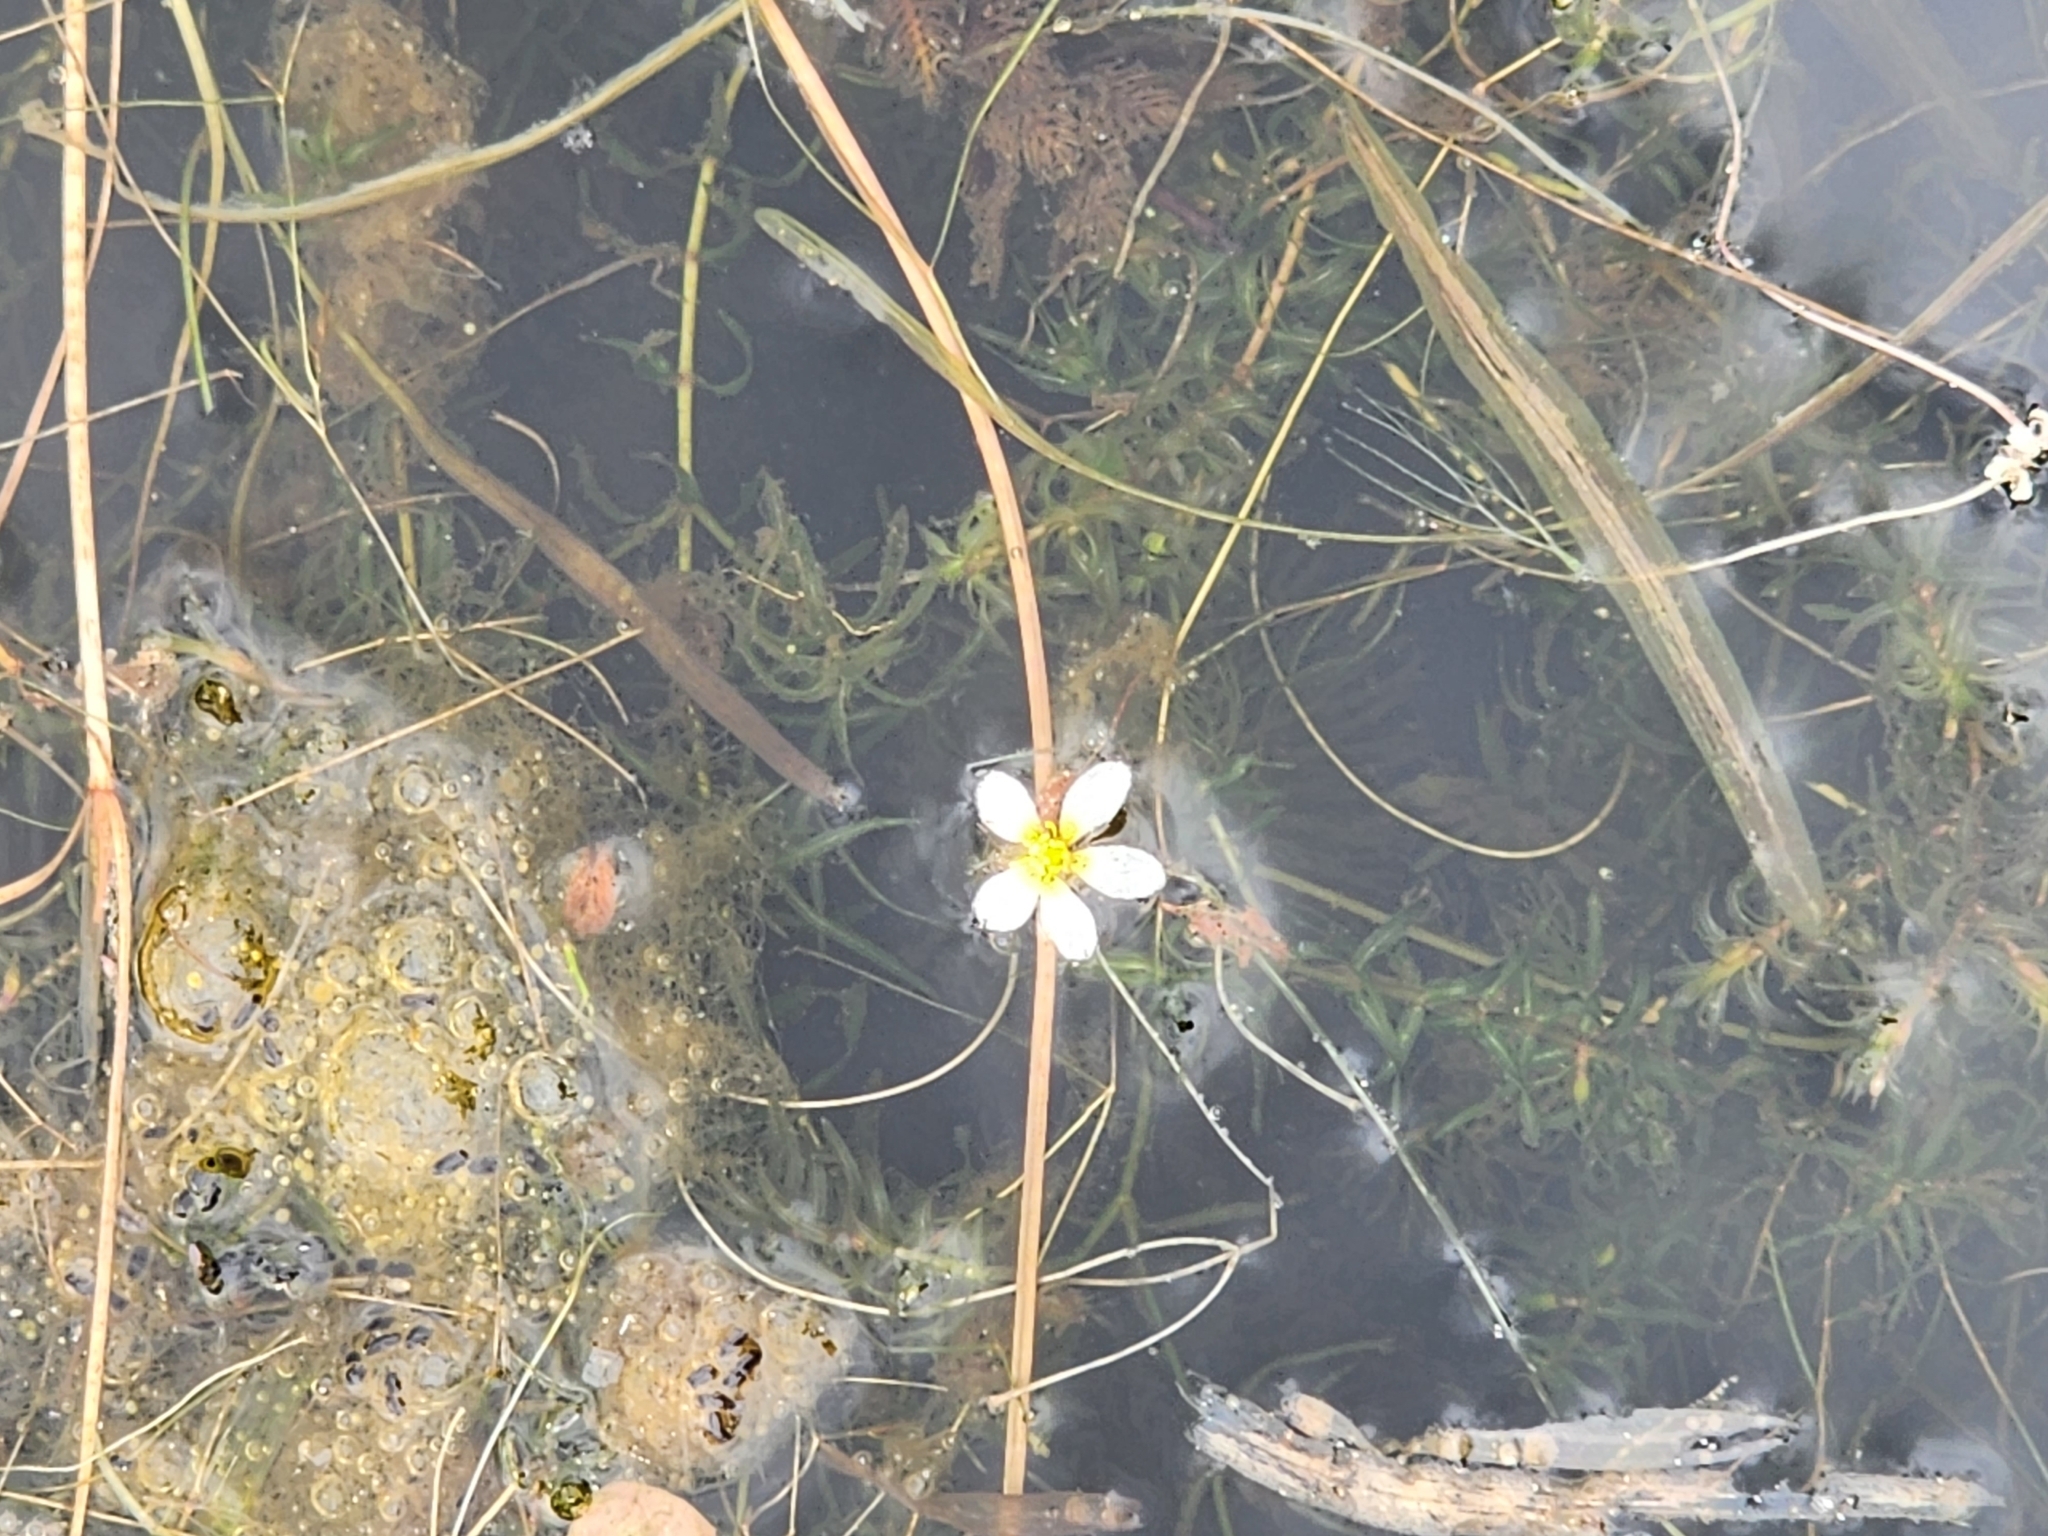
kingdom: Plantae
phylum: Tracheophyta
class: Magnoliopsida
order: Ranunculales
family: Ranunculaceae
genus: Ranunculus
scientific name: Ranunculus aquatilis
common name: Common water-crowfoot
